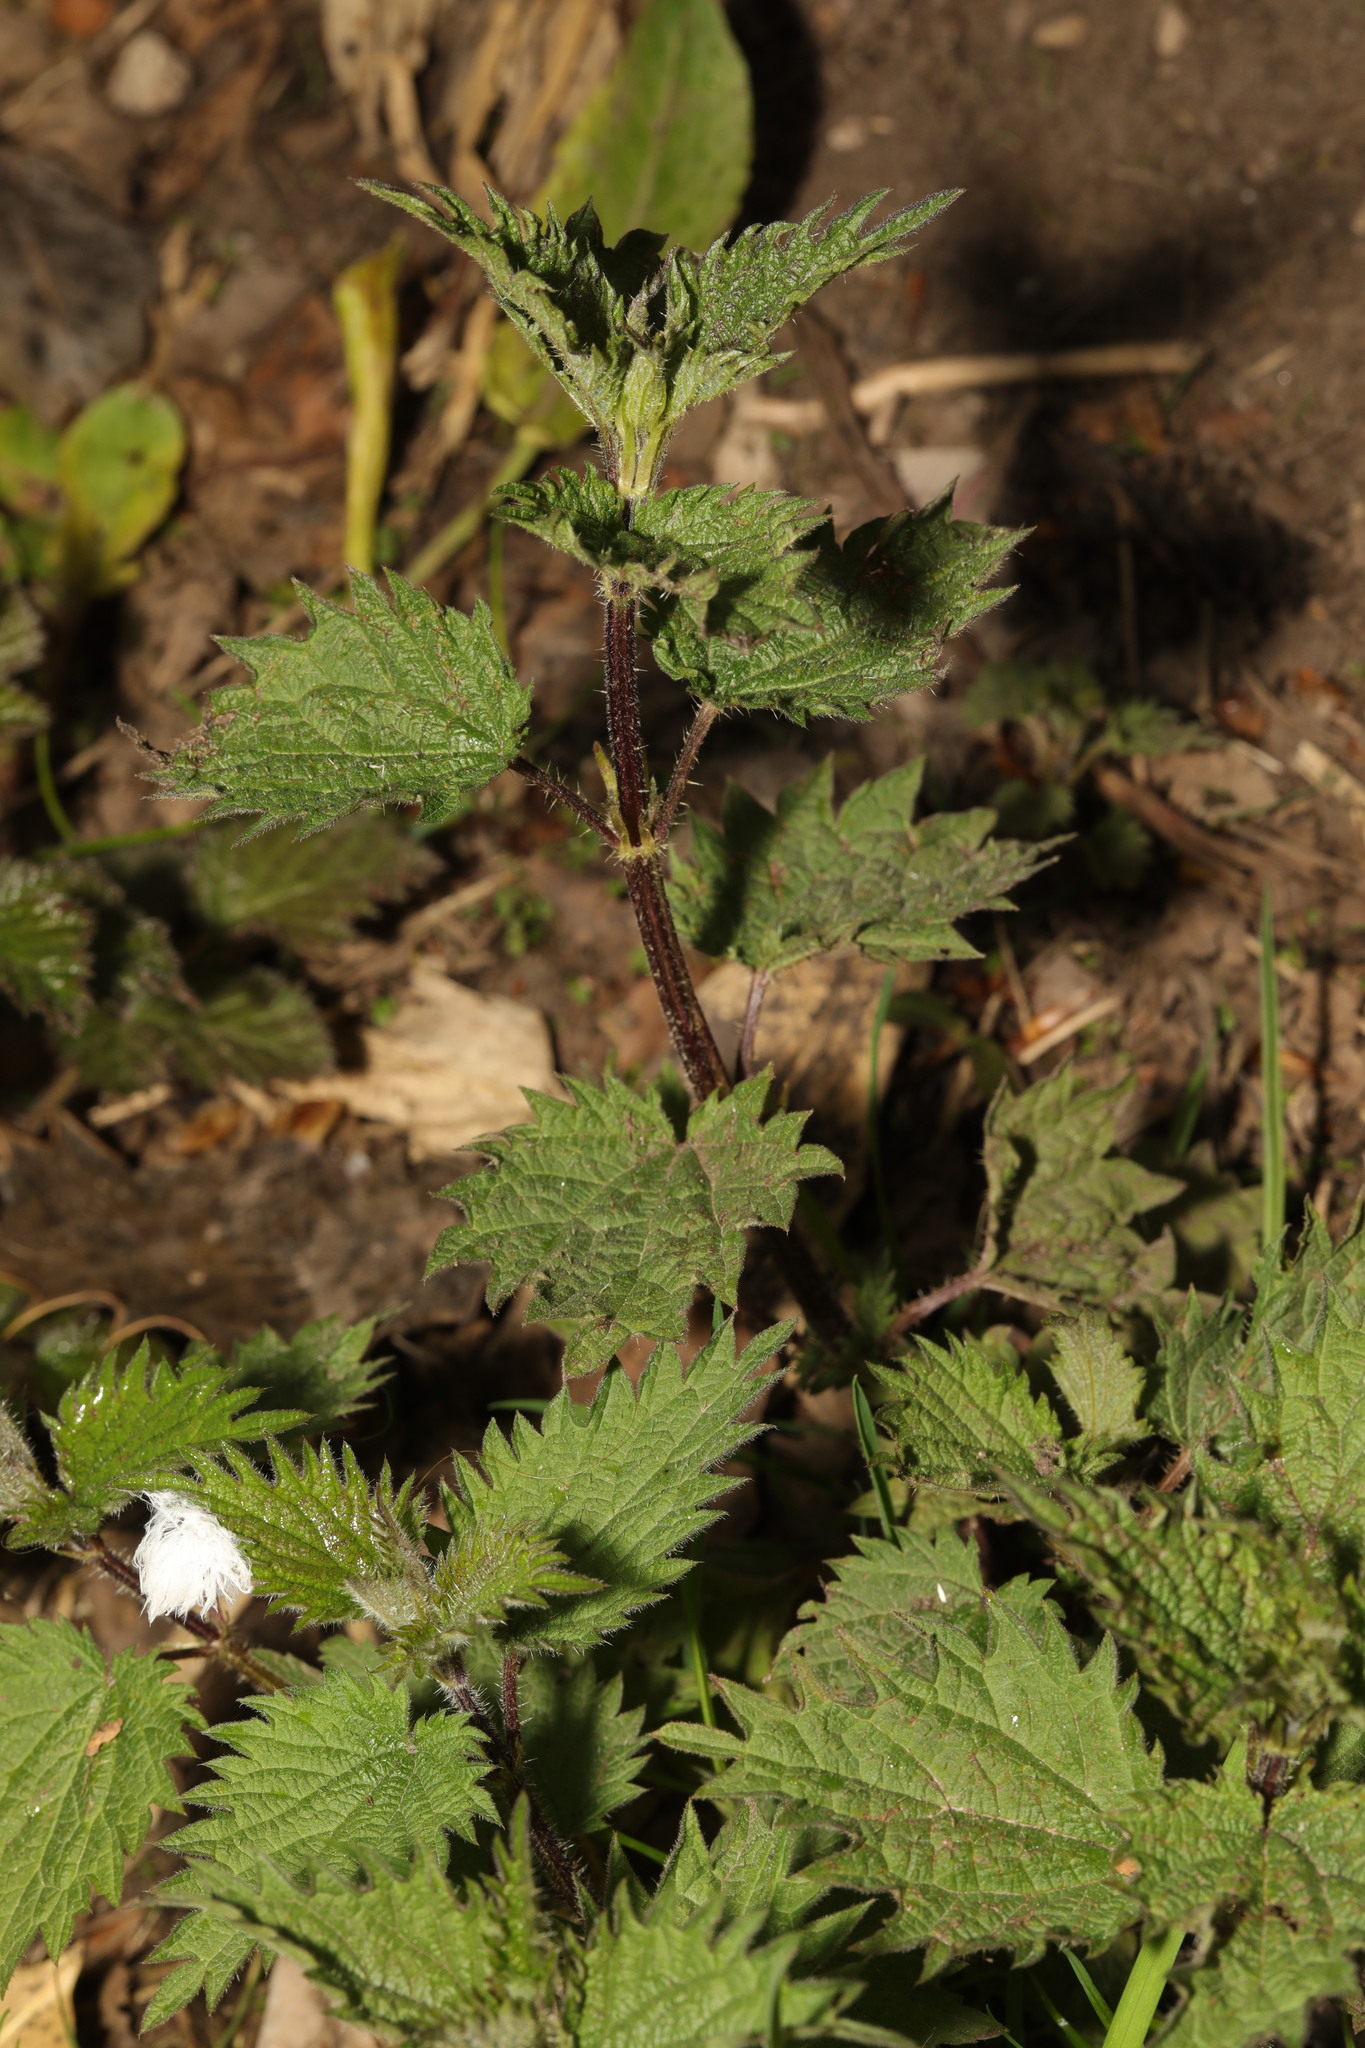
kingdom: Plantae
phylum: Tracheophyta
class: Magnoliopsida
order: Rosales
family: Urticaceae
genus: Urtica
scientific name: Urtica dioica
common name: Common nettle
